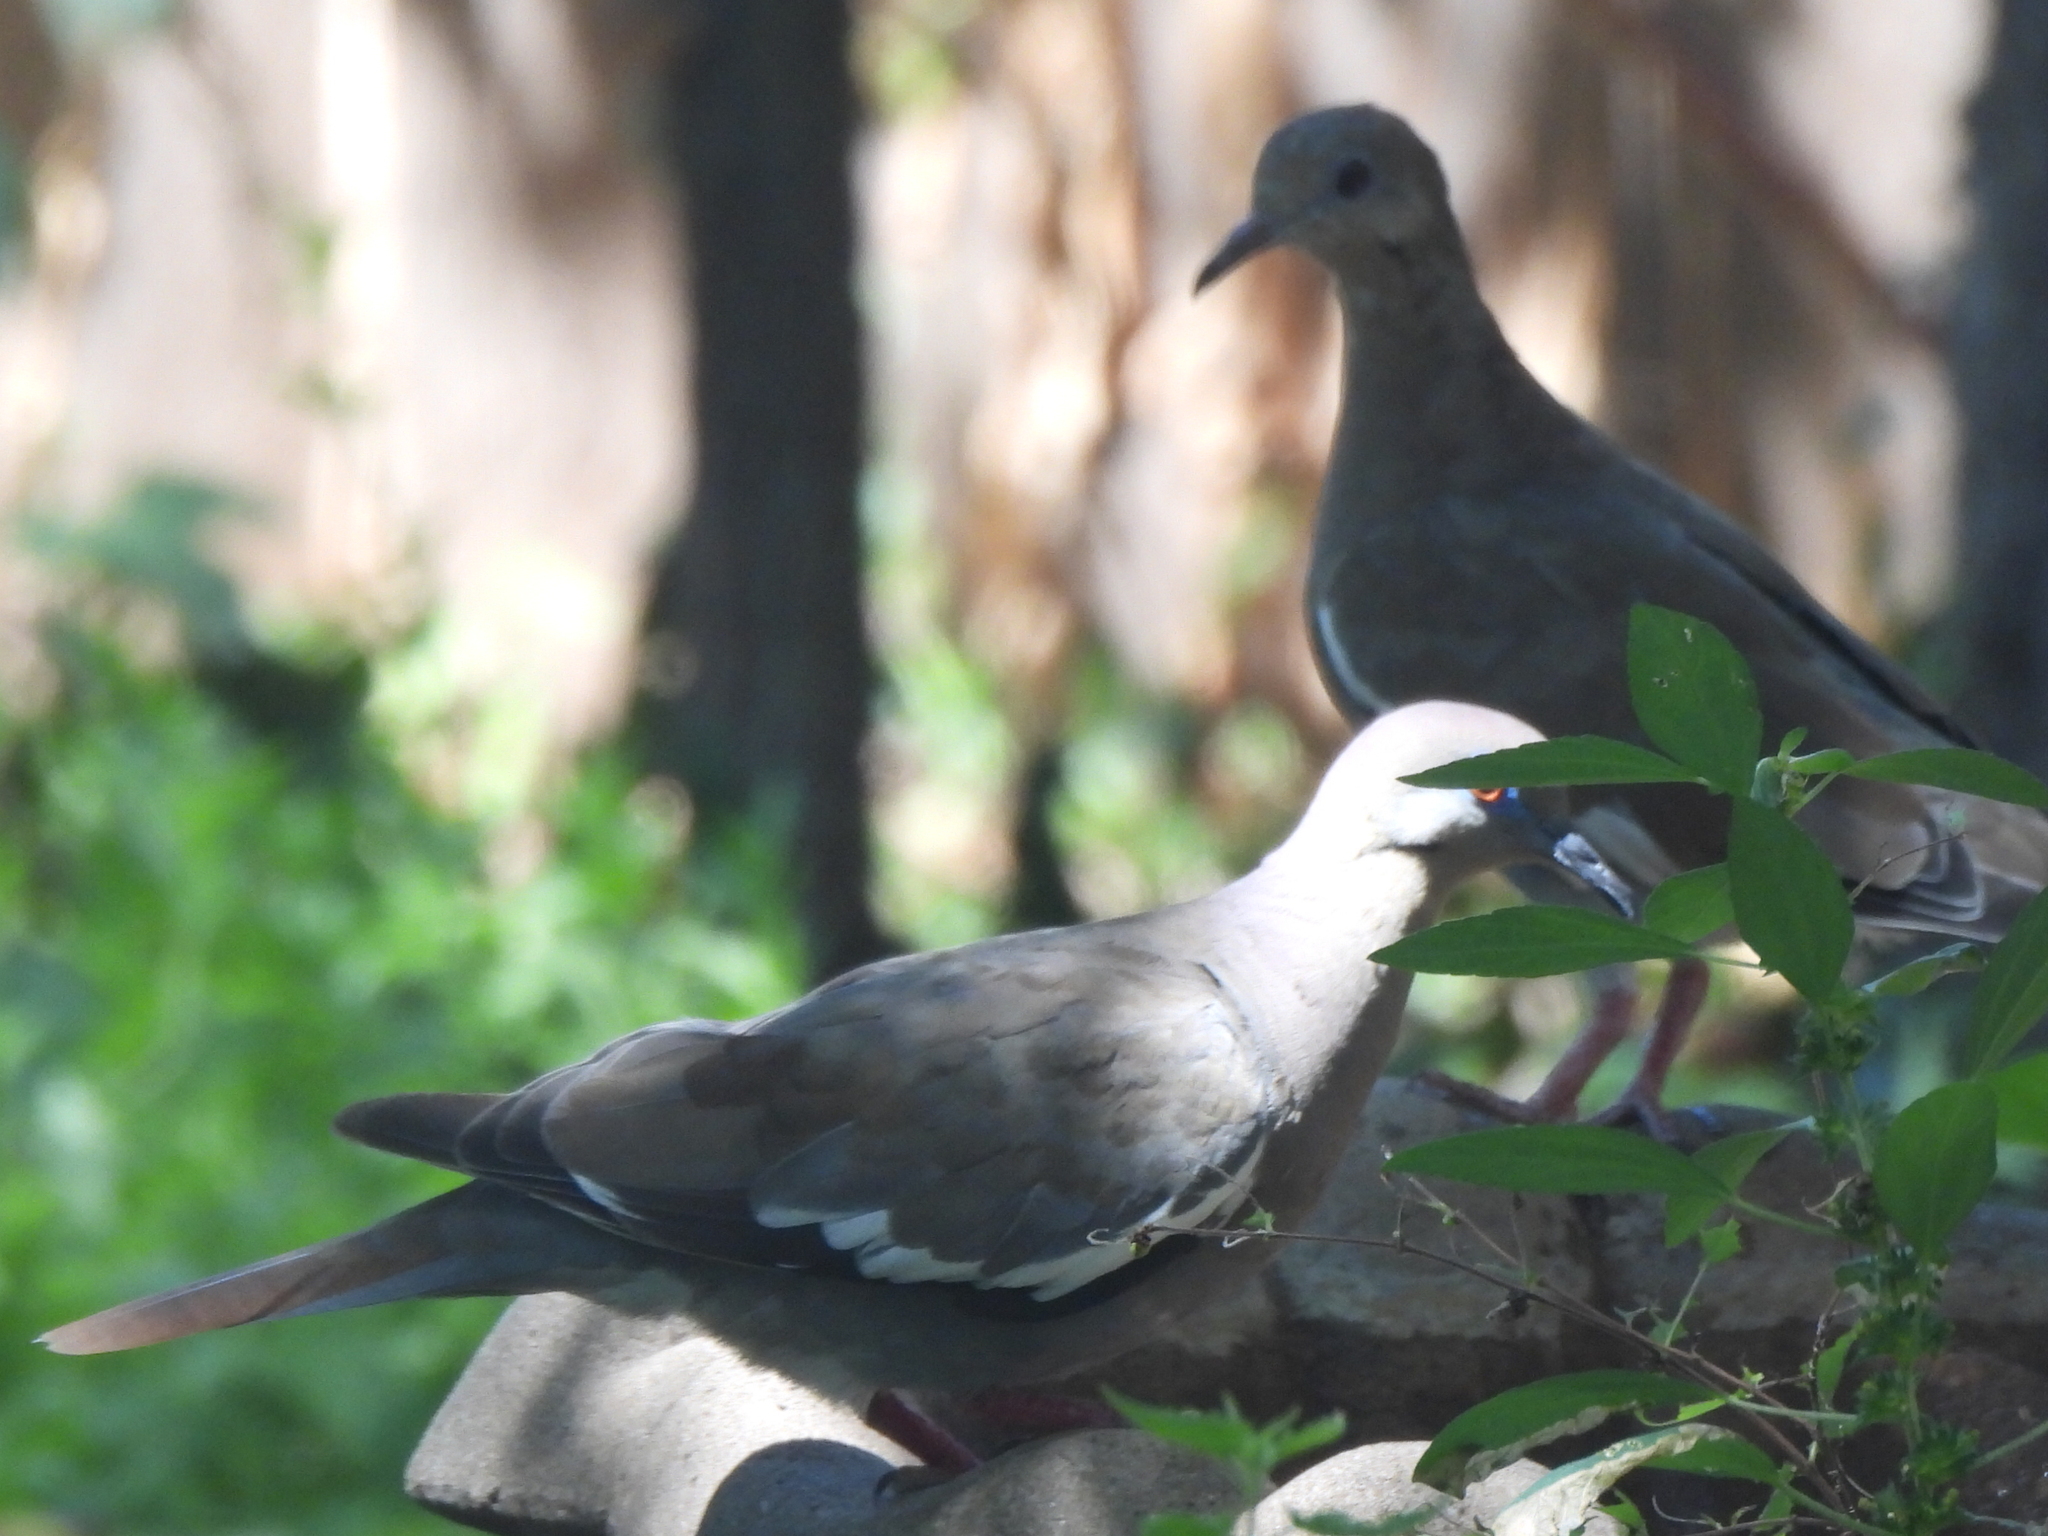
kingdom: Animalia
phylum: Chordata
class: Aves
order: Columbiformes
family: Columbidae
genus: Zenaida
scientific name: Zenaida asiatica
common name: White-winged dove
